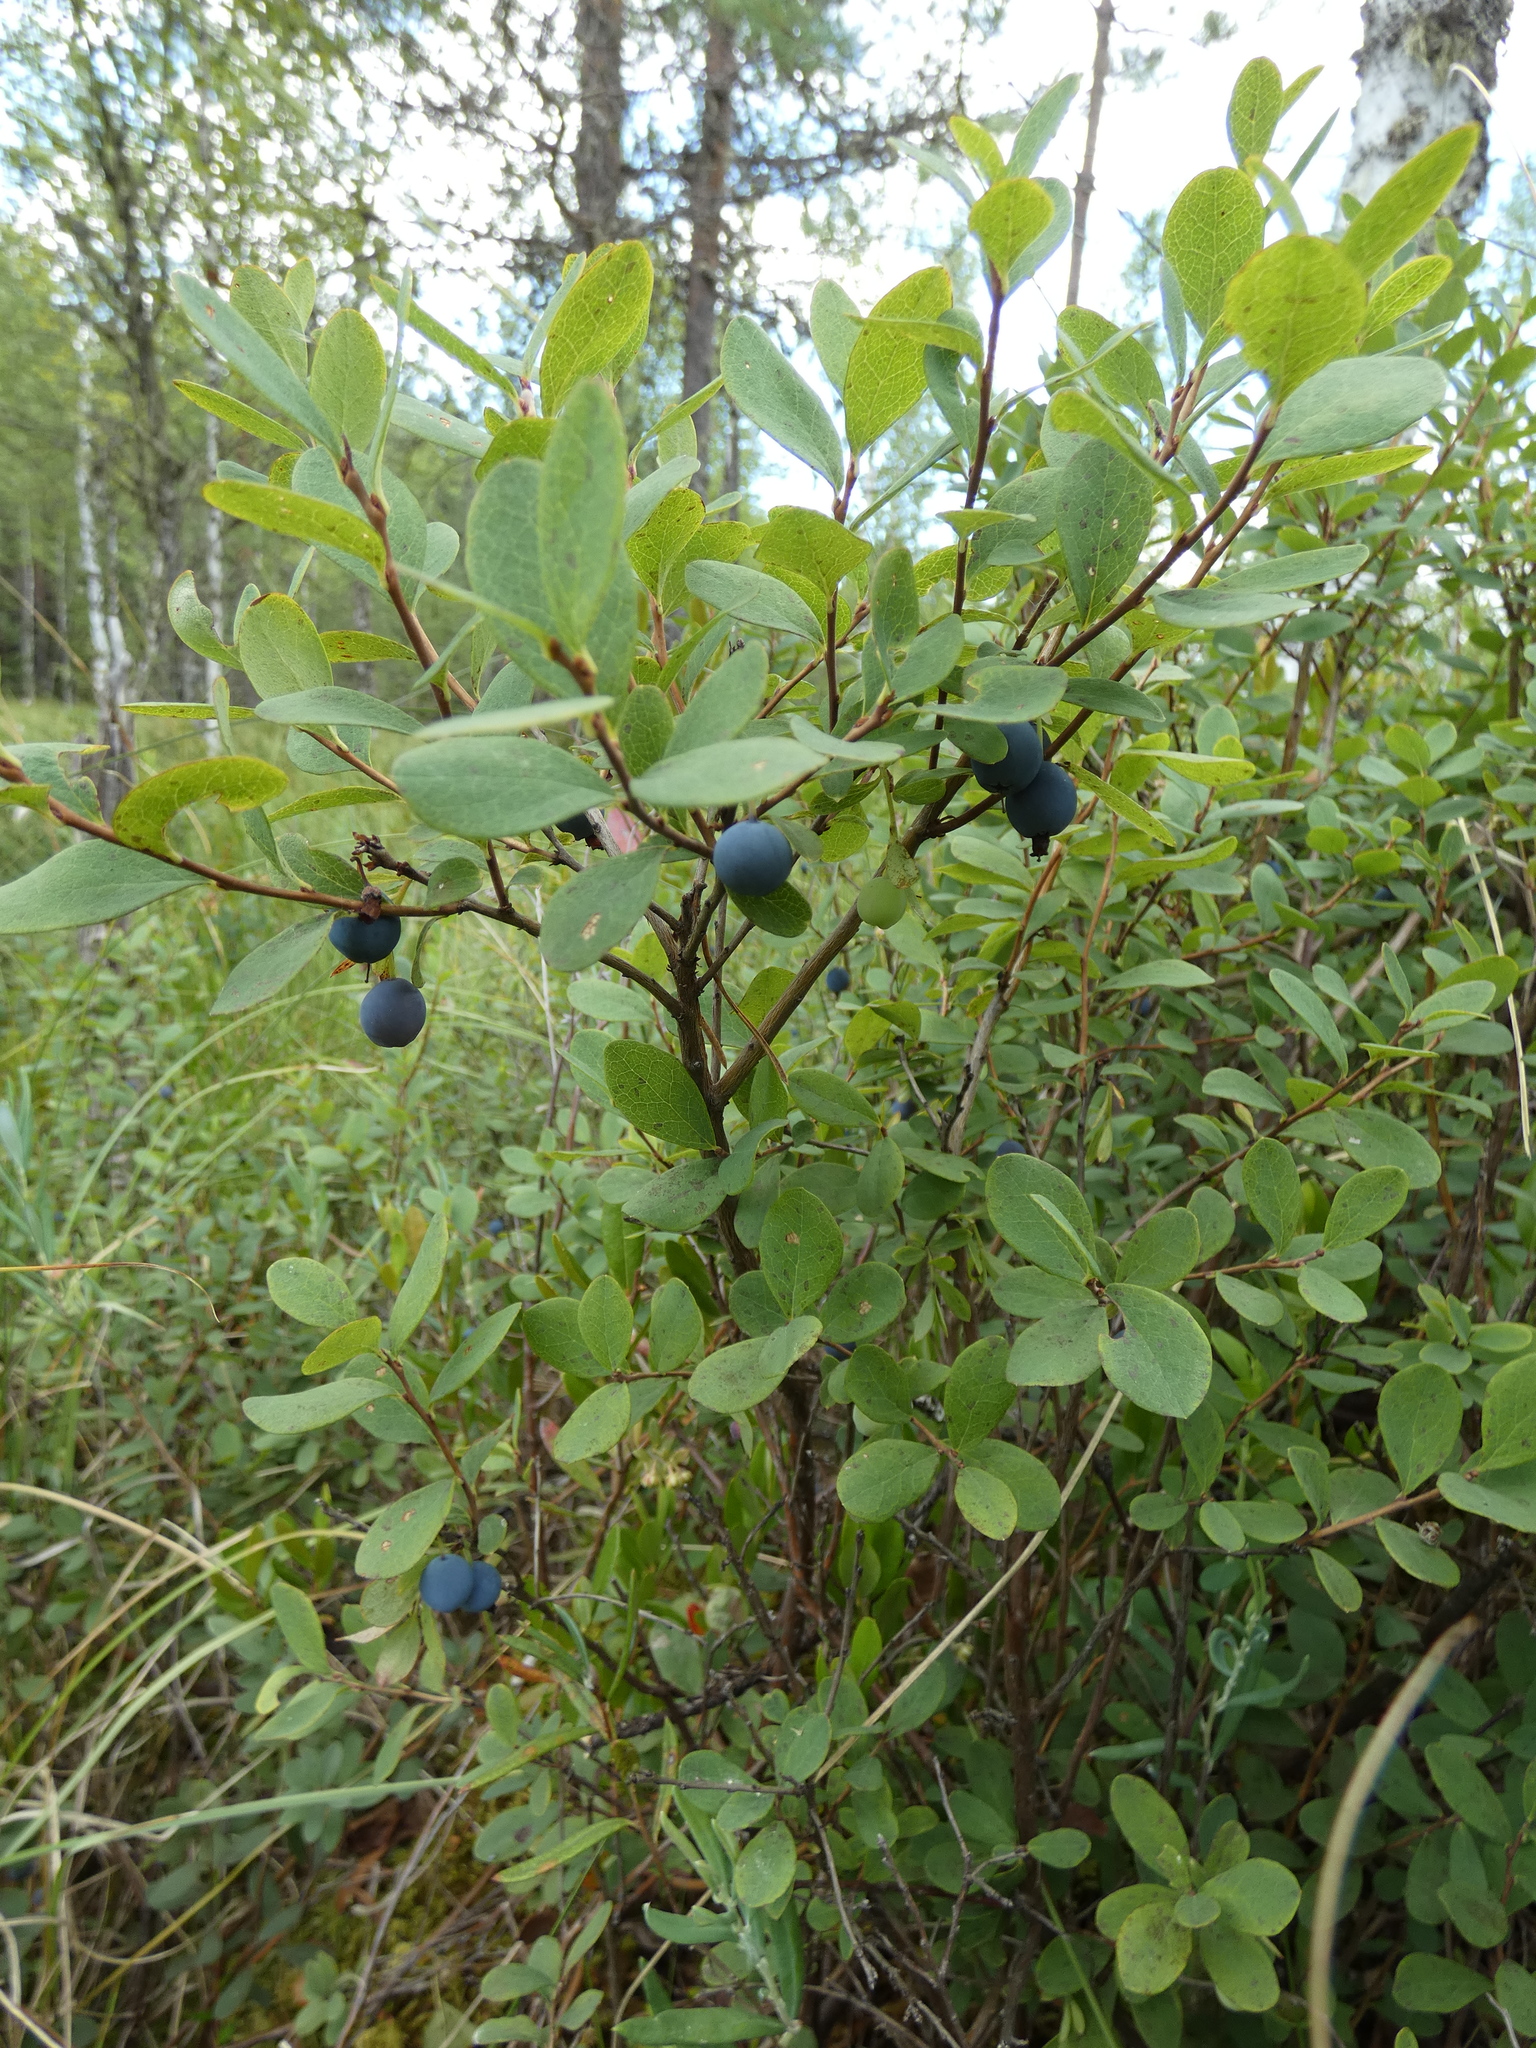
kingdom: Plantae
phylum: Tracheophyta
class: Magnoliopsida
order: Ericales
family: Ericaceae
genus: Vaccinium
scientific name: Vaccinium uliginosum
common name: Bog bilberry
